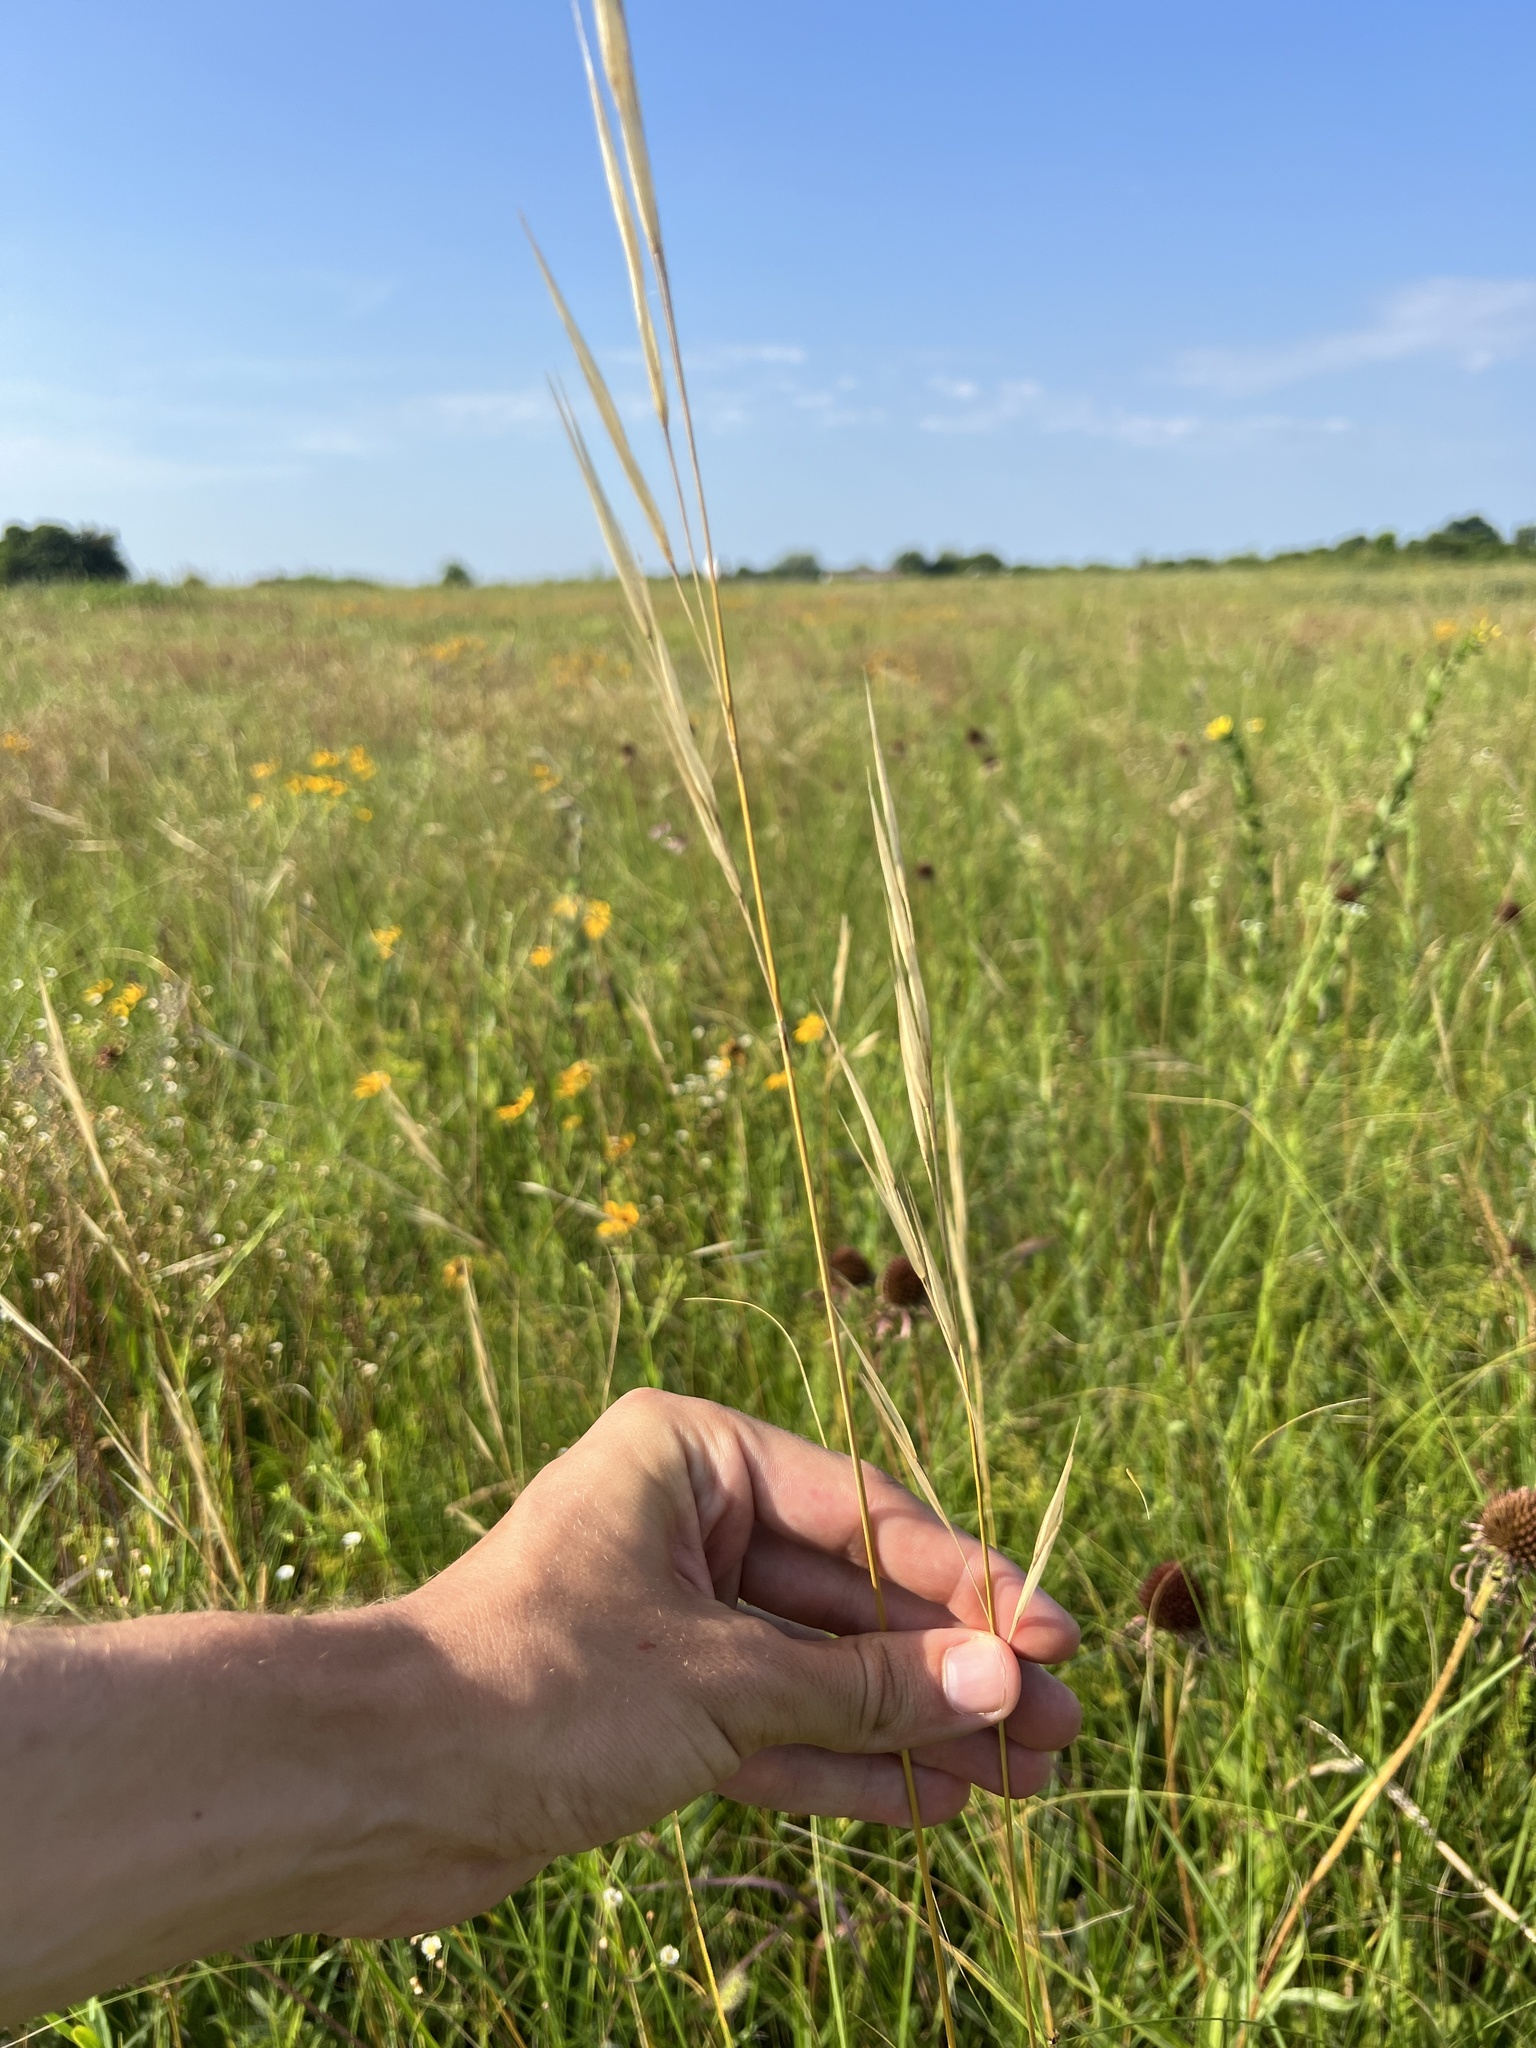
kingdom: Plantae
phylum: Tracheophyta
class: Liliopsida
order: Poales
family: Poaceae
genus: Hesperostipa
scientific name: Hesperostipa spartea
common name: Porcupine grass
